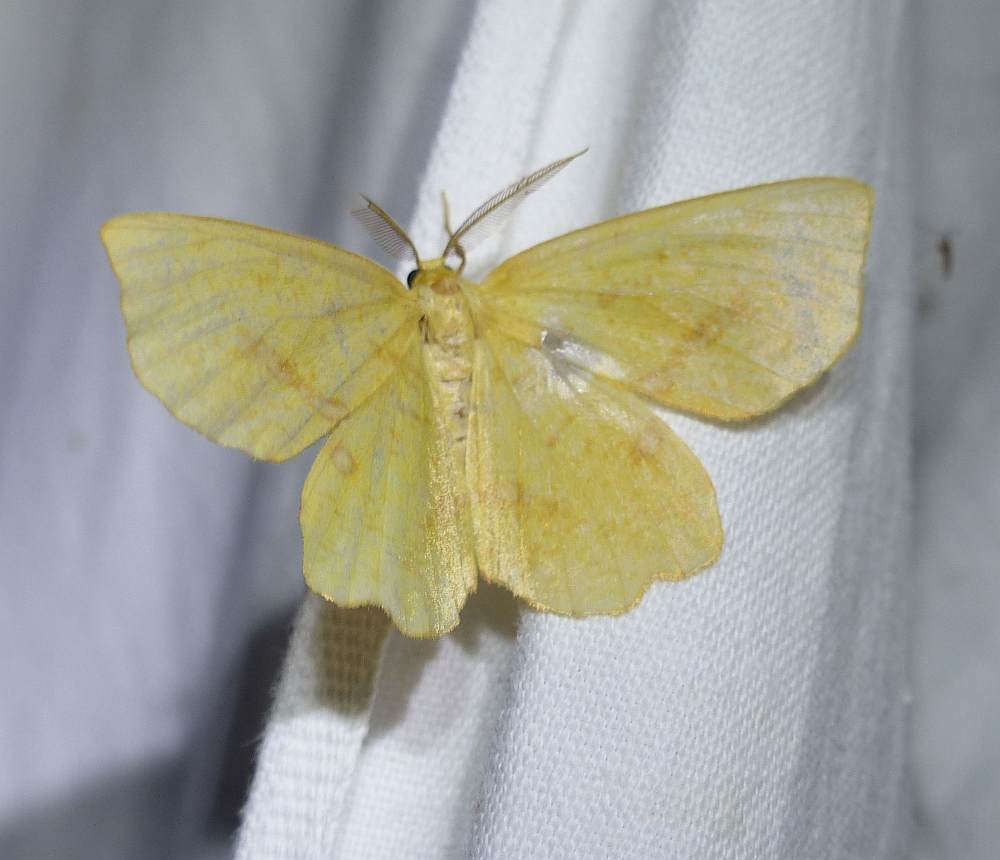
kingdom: Animalia
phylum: Arthropoda
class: Insecta
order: Lepidoptera
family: Geometridae
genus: Xanthotype
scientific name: Xanthotype
